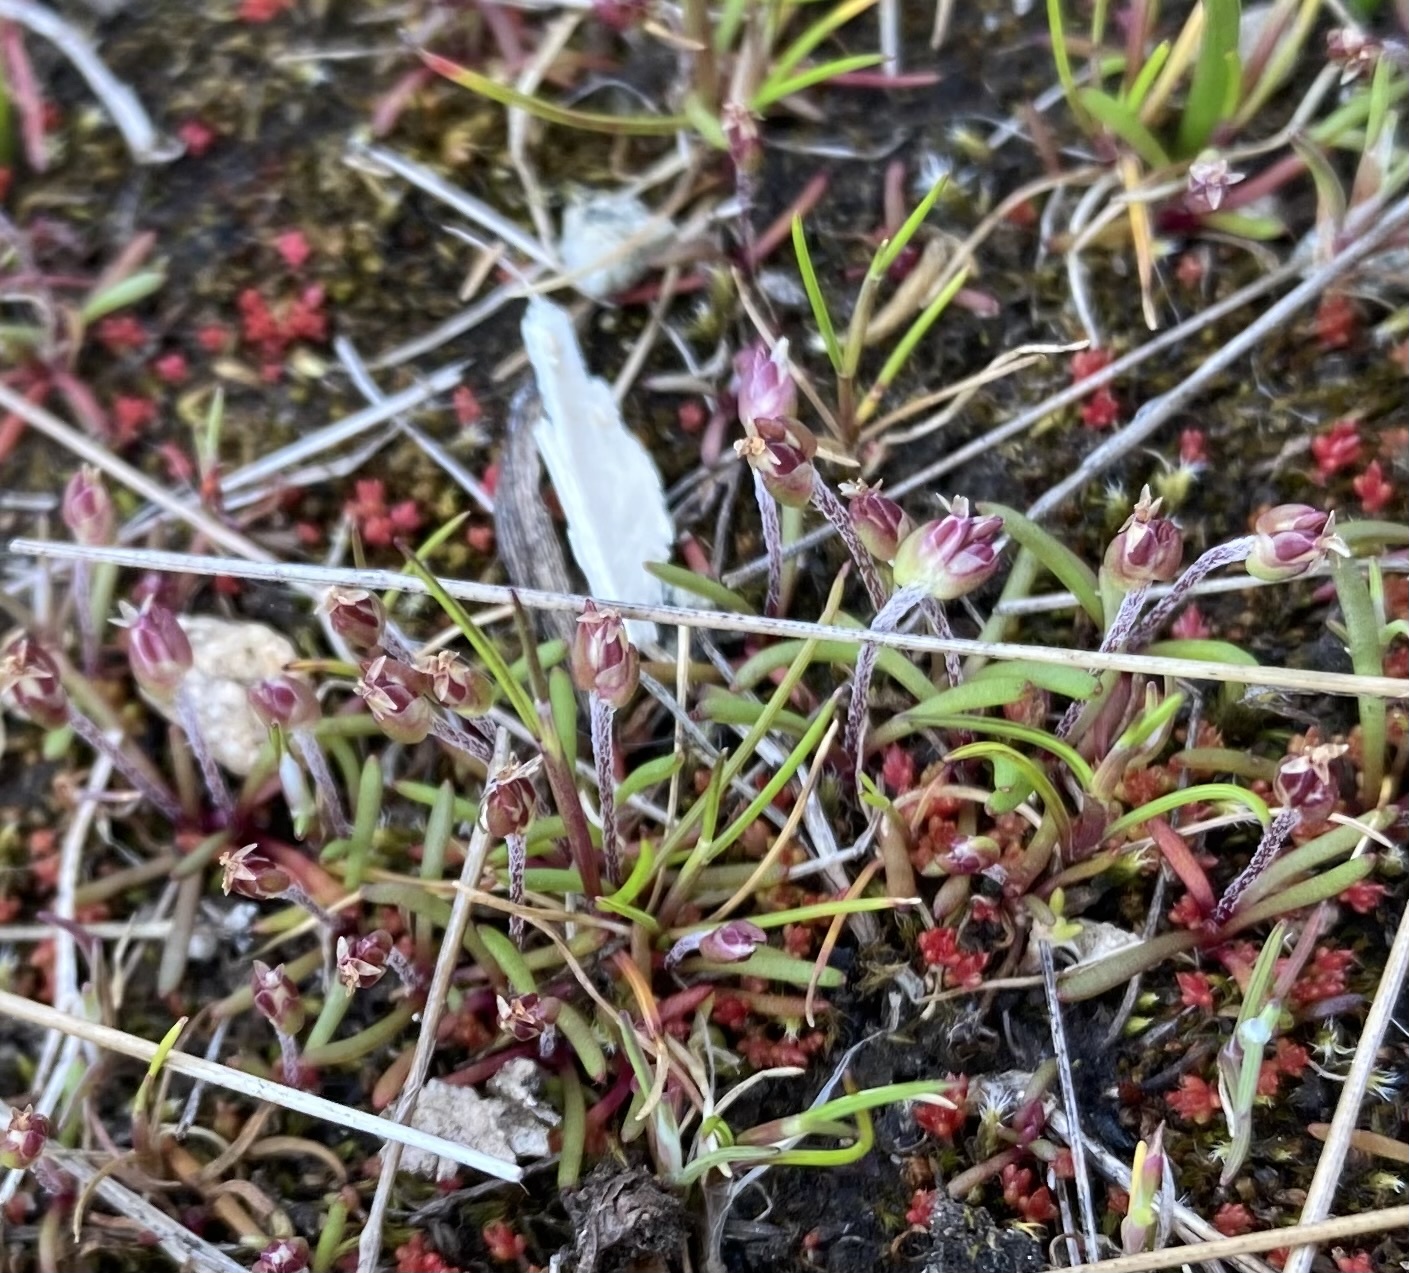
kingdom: Plantae
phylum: Tracheophyta
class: Magnoliopsida
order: Lamiales
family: Plantaginaceae
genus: Plantago
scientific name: Plantago elongata
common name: Linear-leaved plantain
